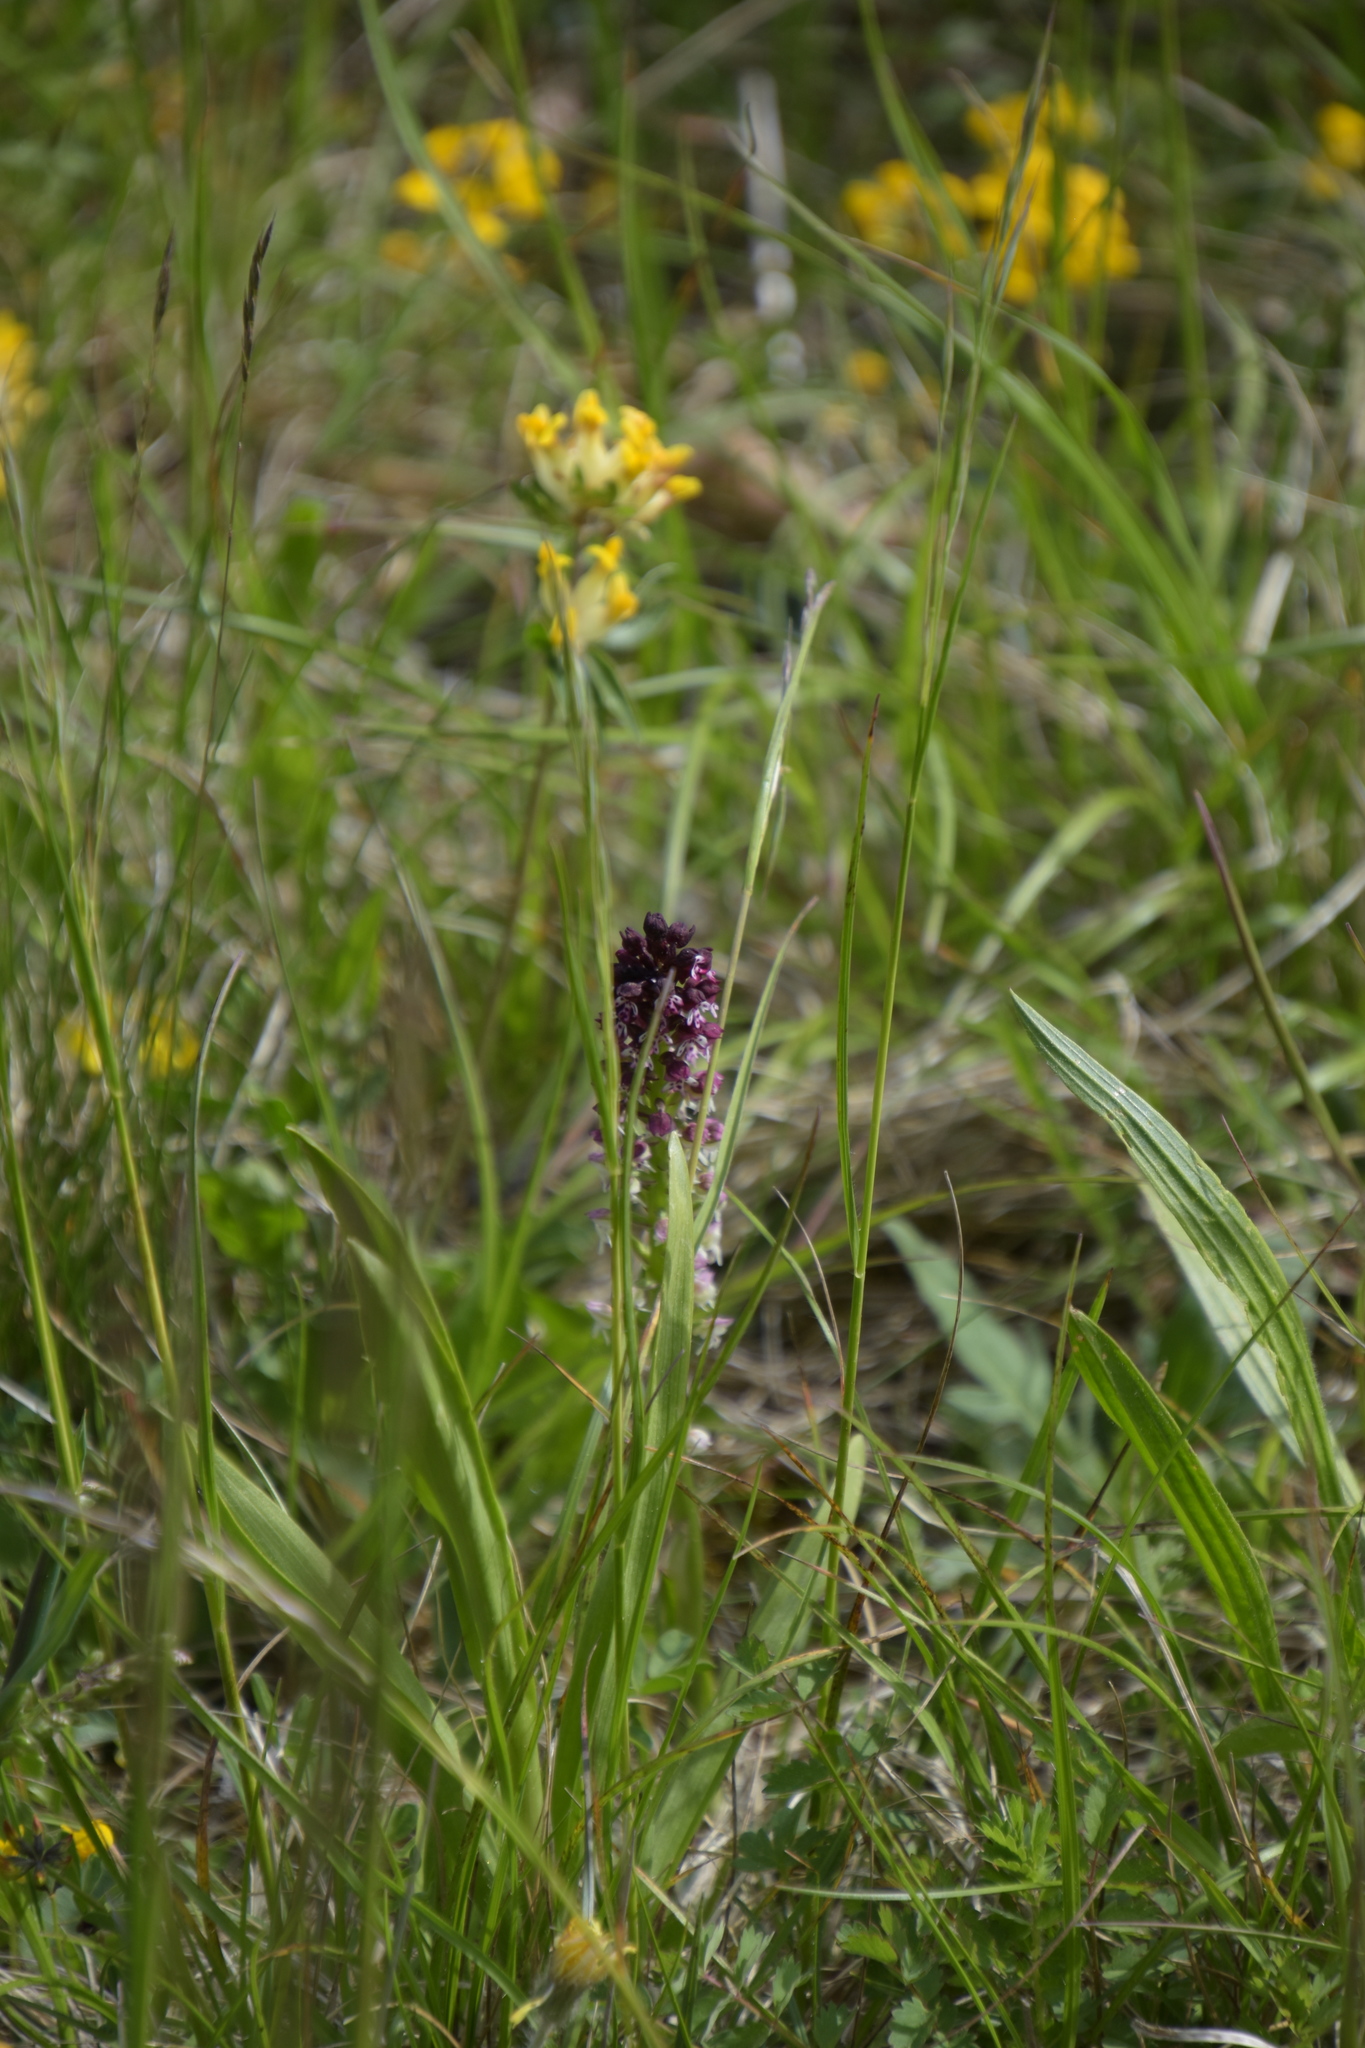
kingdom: Plantae
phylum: Tracheophyta
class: Liliopsida
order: Asparagales
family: Orchidaceae
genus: Neotinea
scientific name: Neotinea ustulata
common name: Burnt orchid
